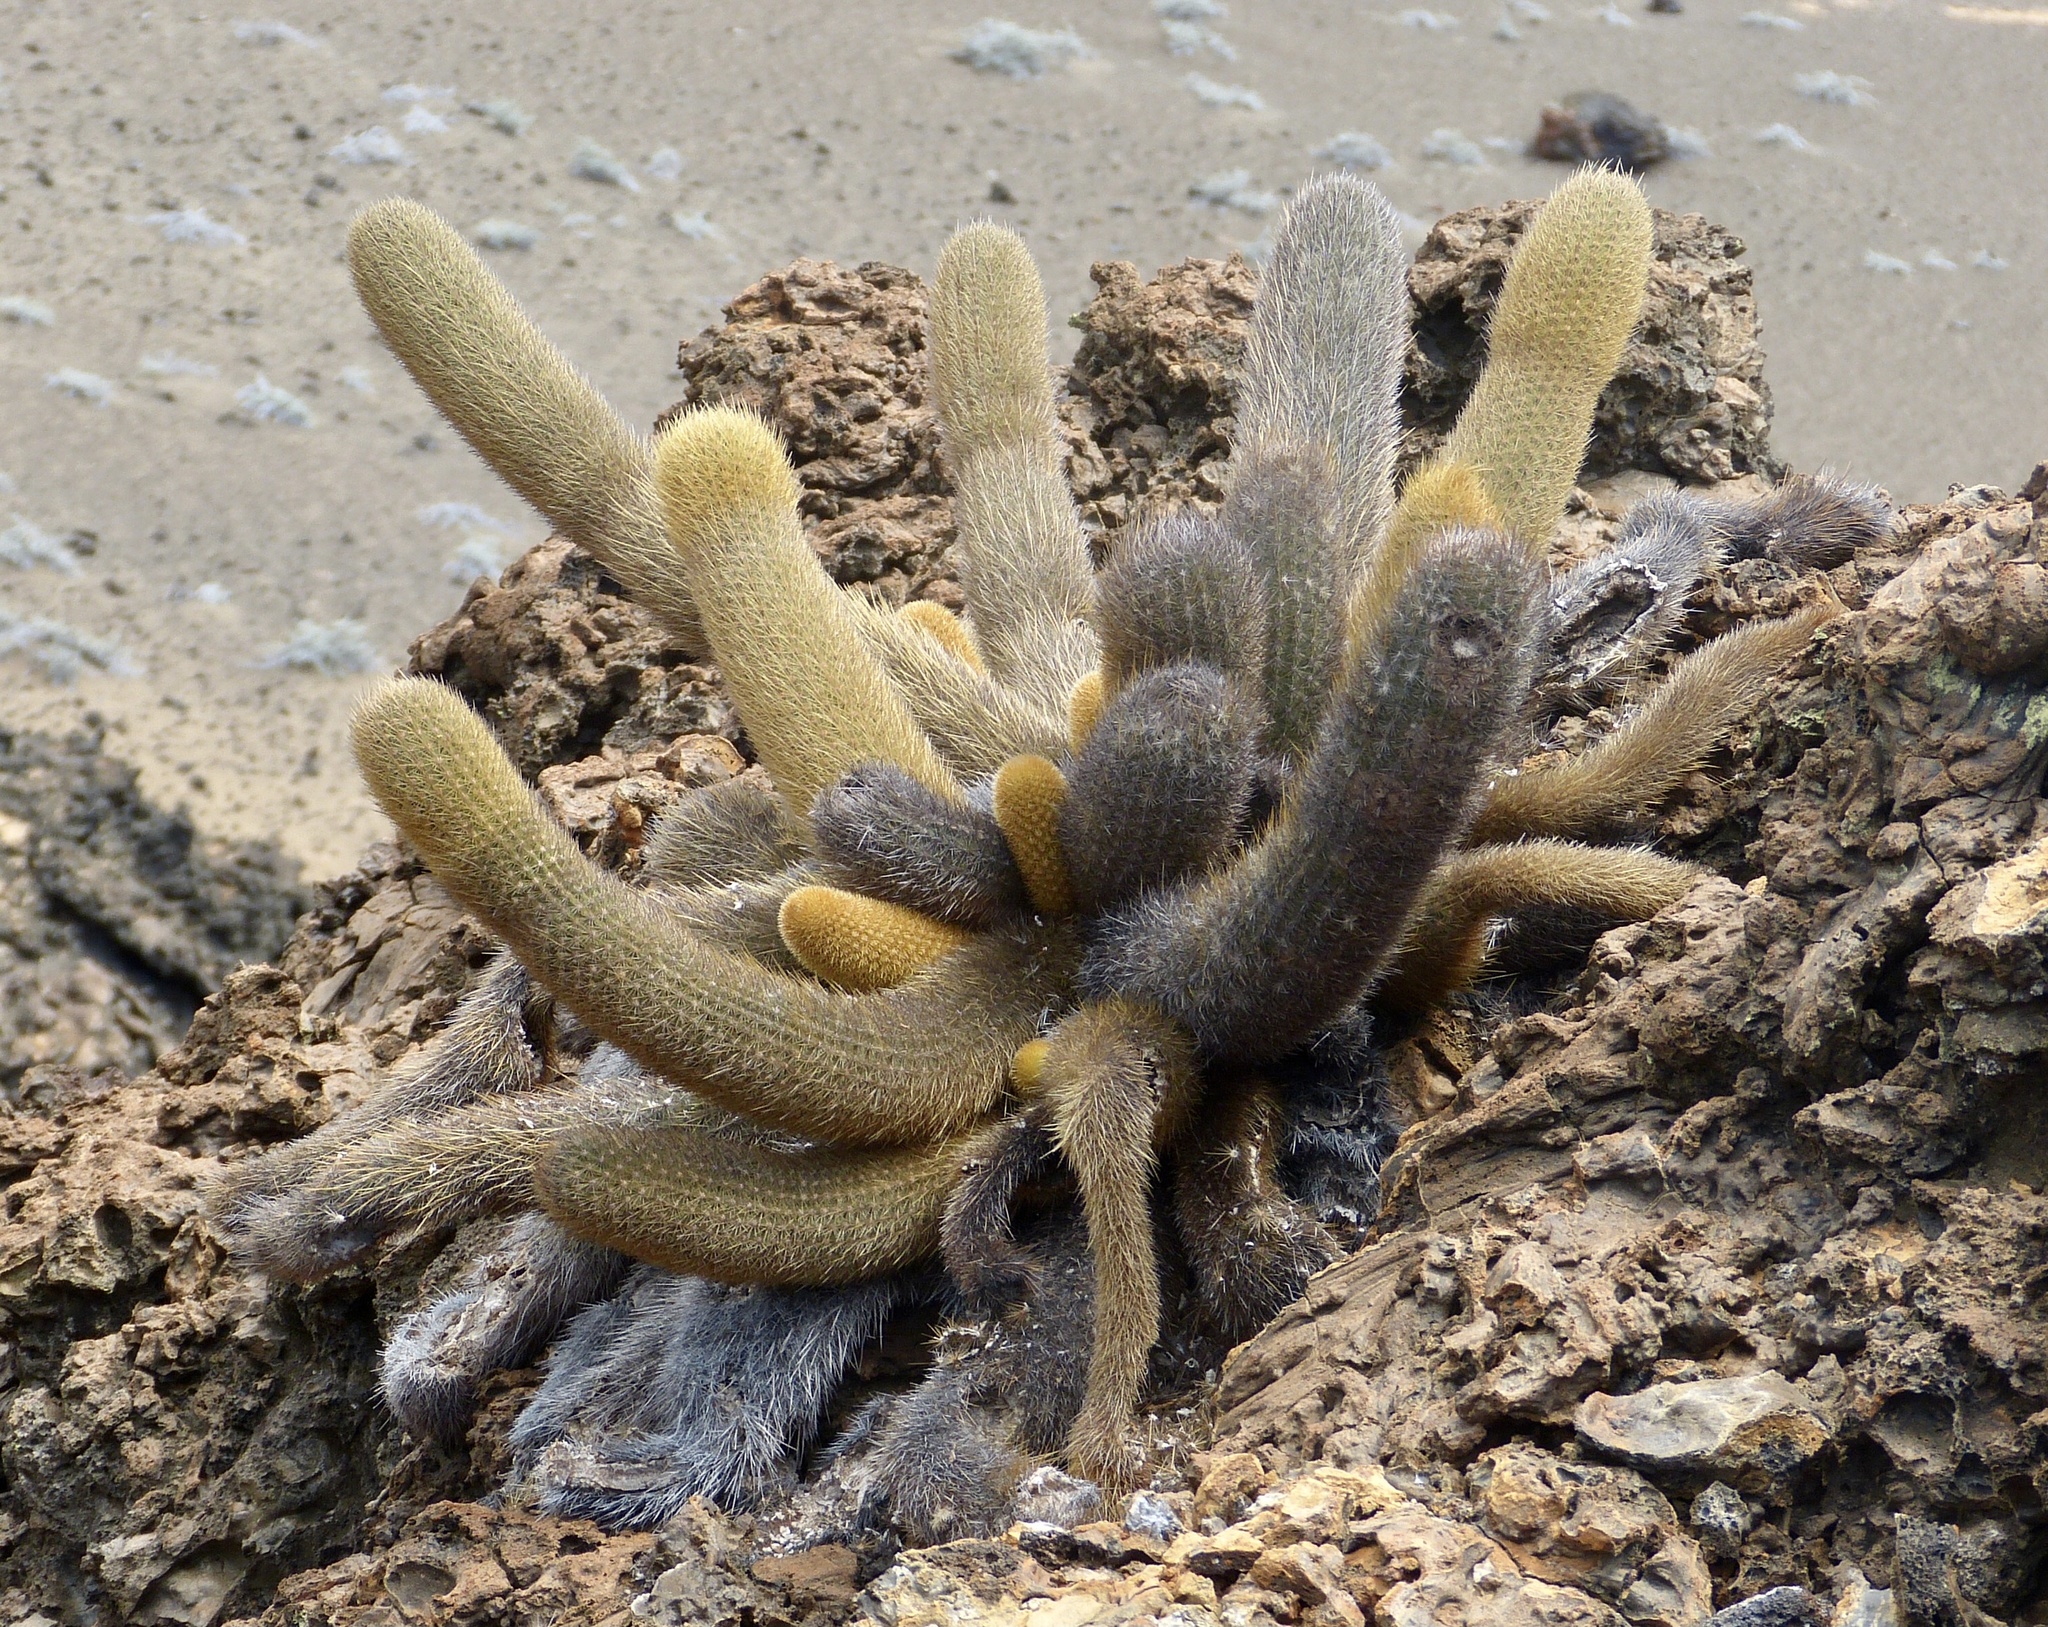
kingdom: Plantae
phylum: Tracheophyta
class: Magnoliopsida
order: Caryophyllales
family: Cactaceae
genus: Brachycereus
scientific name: Brachycereus nesioticus
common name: Lava cactus
